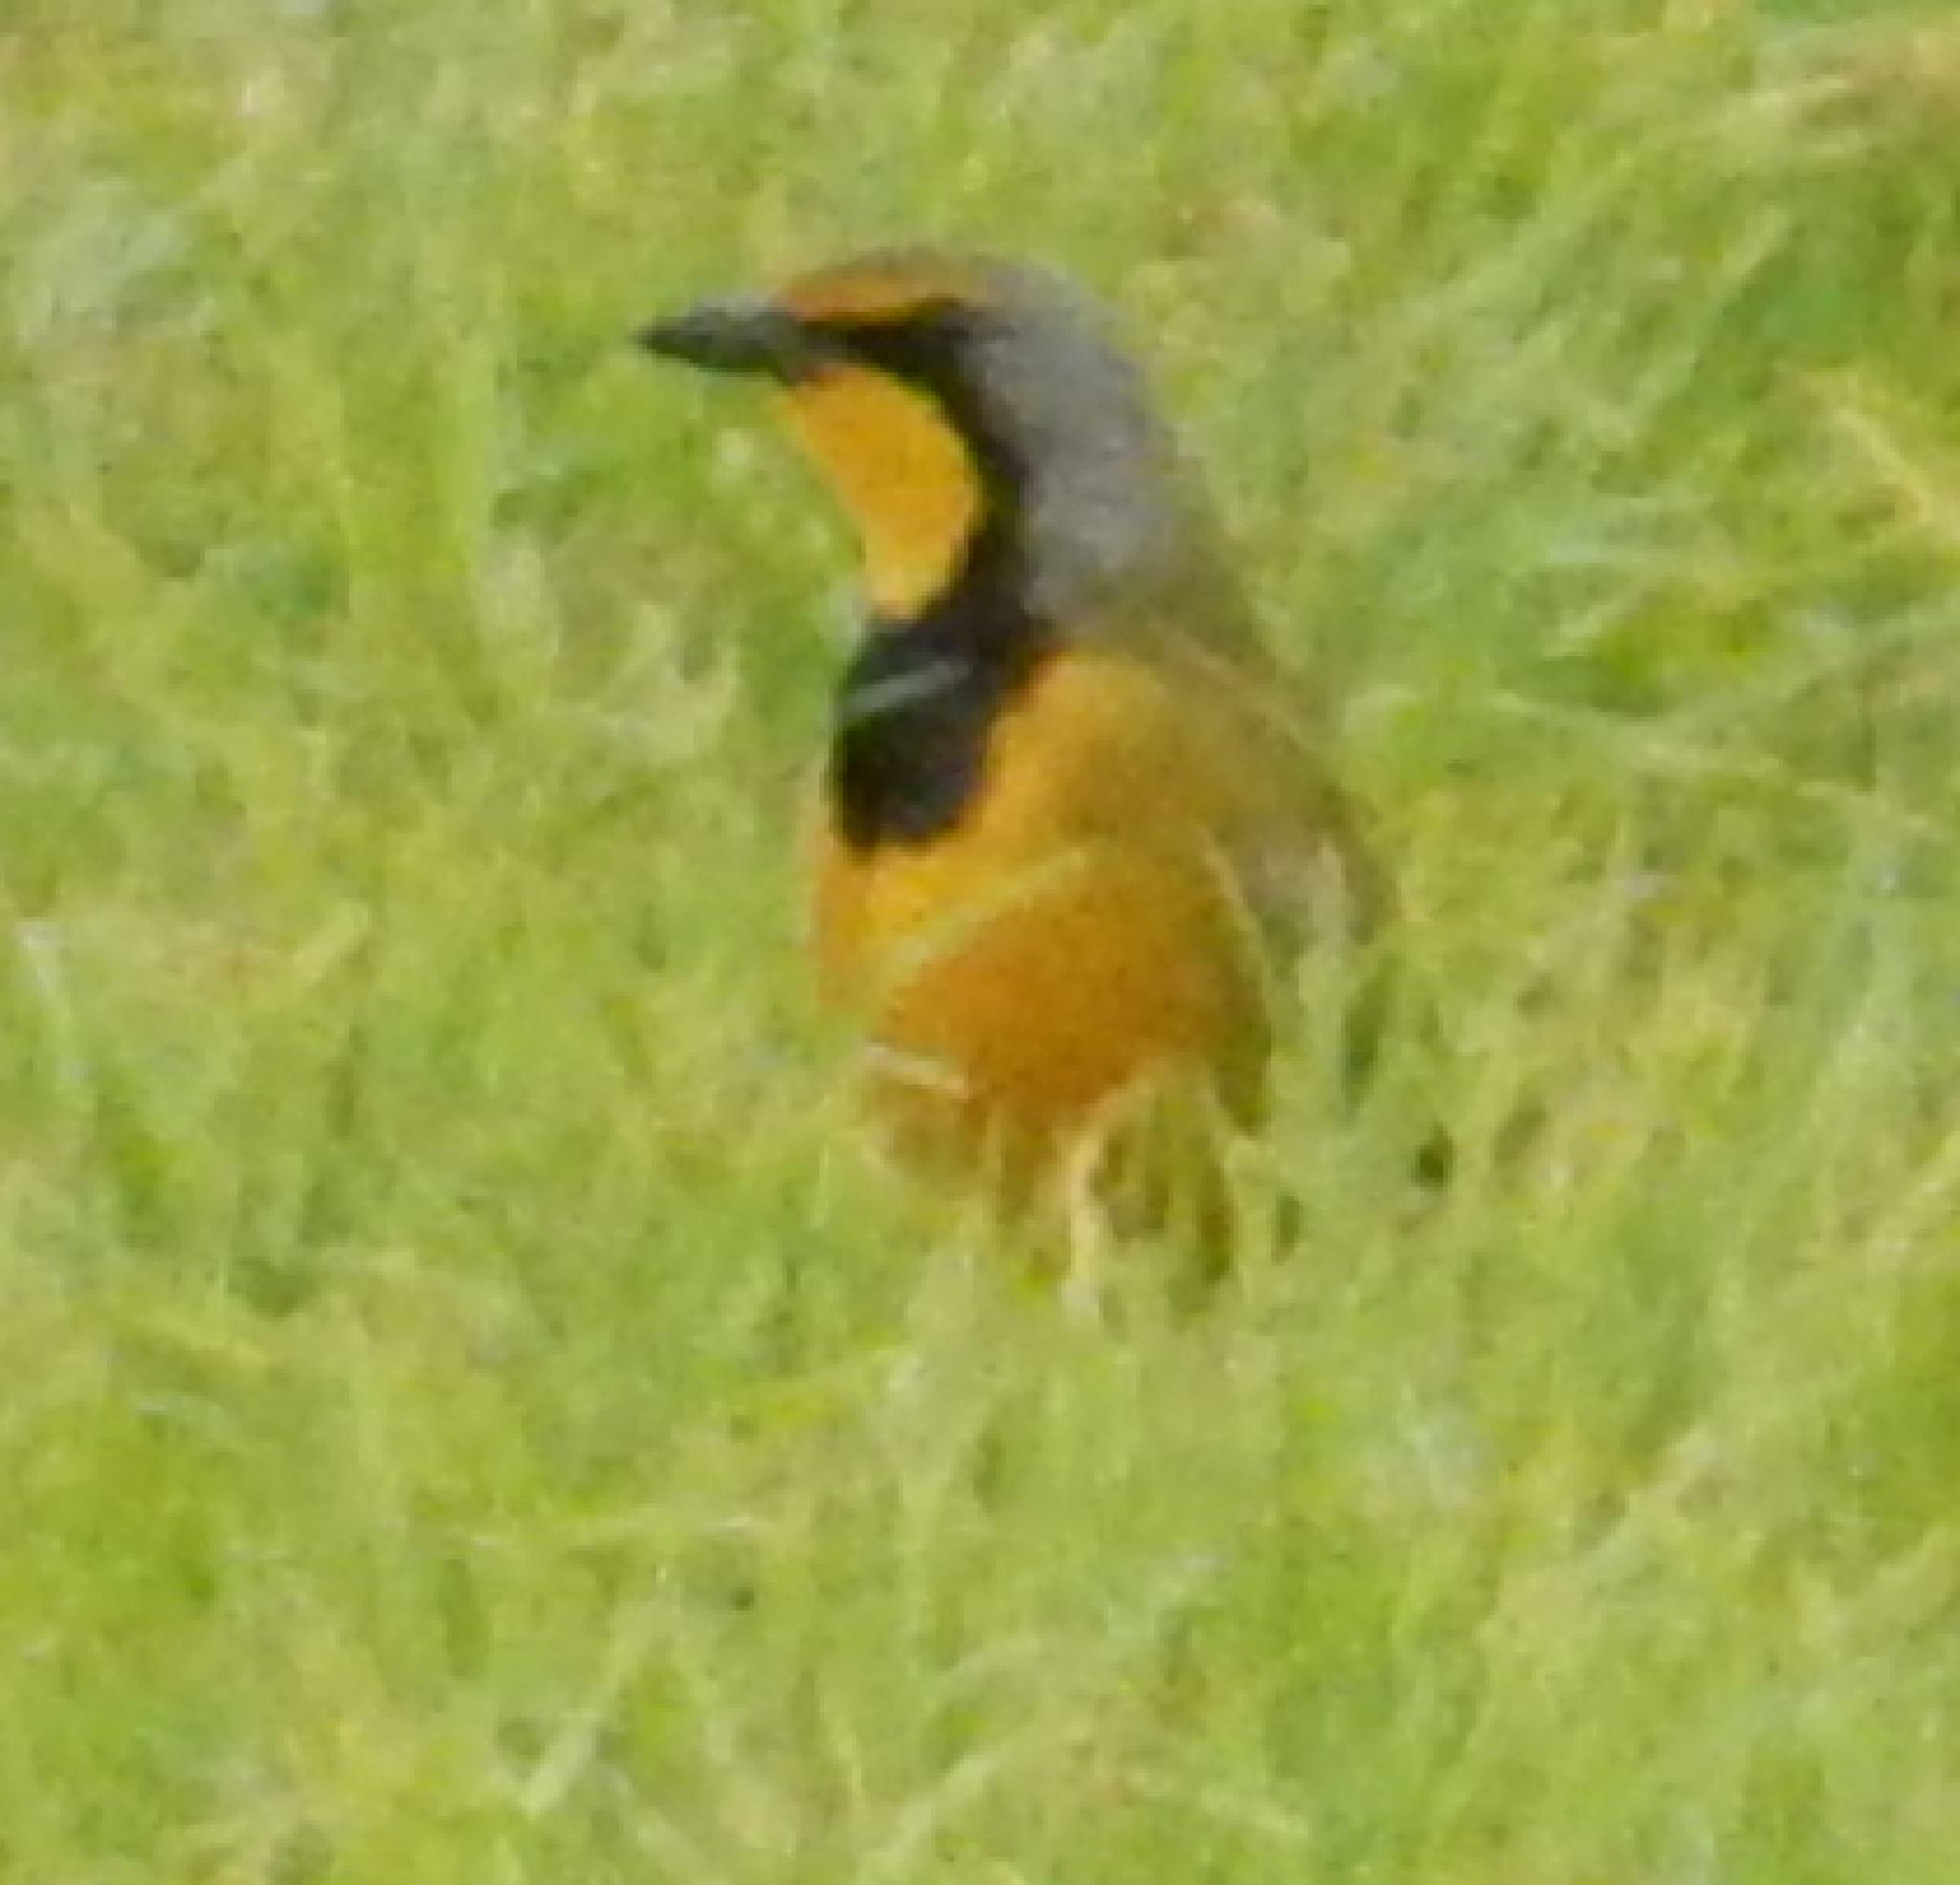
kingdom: Animalia
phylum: Chordata
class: Aves
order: Passeriformes
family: Malaconotidae
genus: Telophorus
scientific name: Telophorus zeylonus
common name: Bokmakierie
